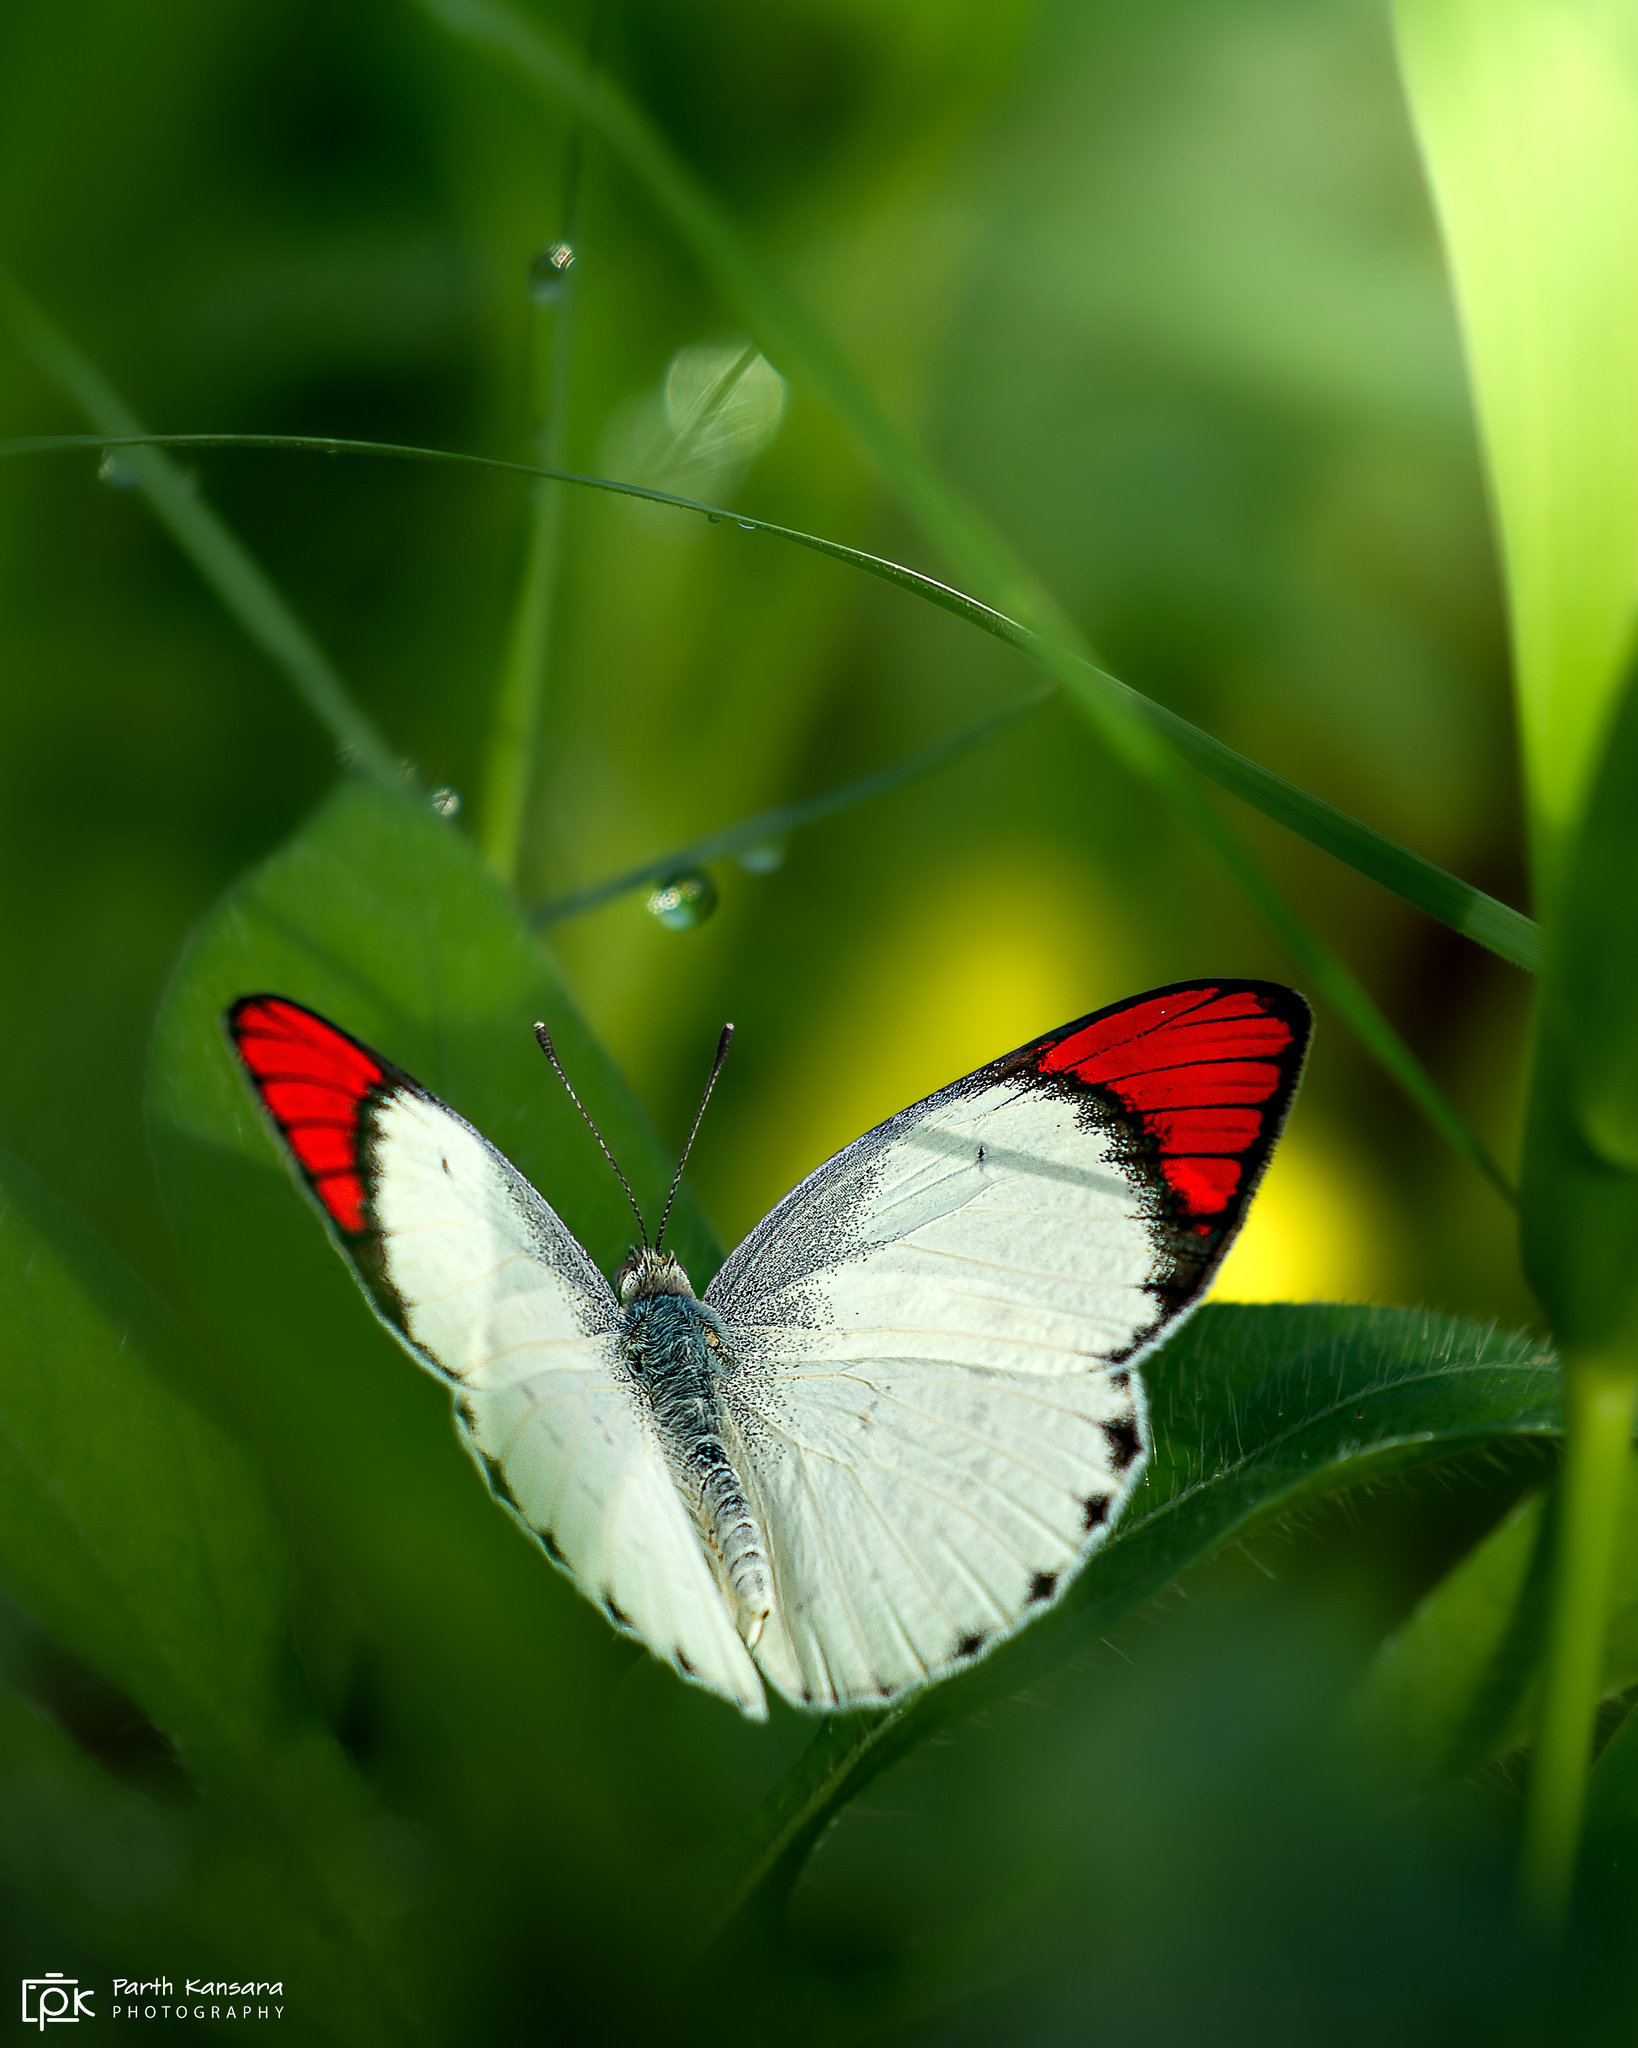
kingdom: Animalia
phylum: Arthropoda
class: Insecta
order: Lepidoptera
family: Pieridae
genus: Colotis
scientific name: Colotis danae
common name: Crimson tip
